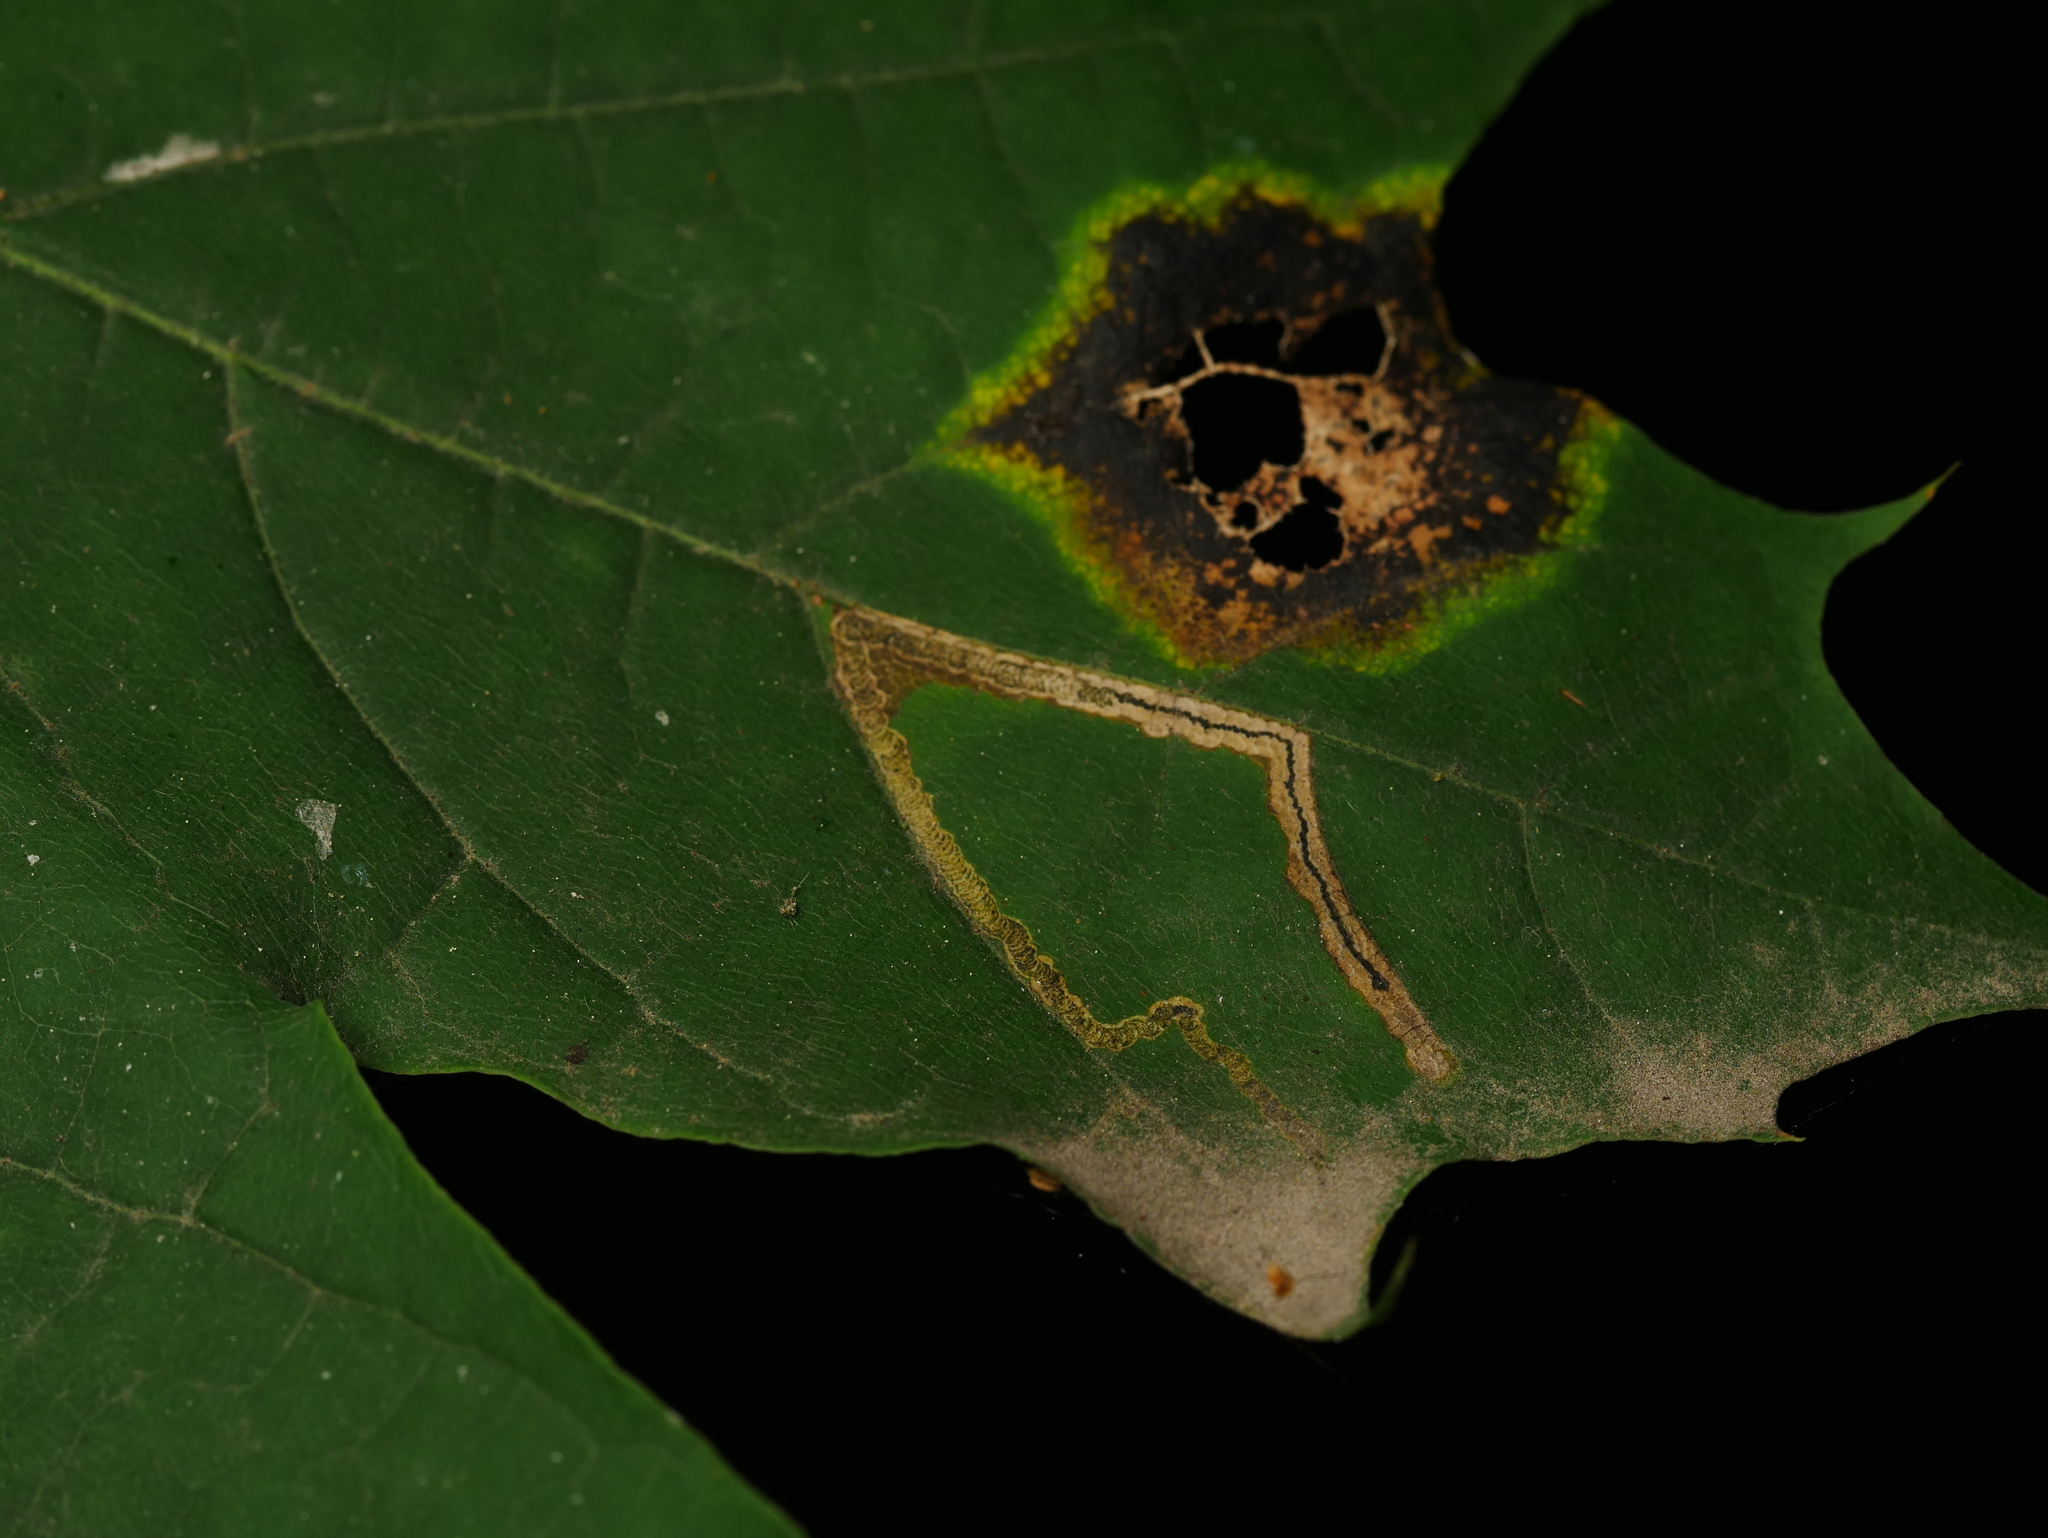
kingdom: Fungi
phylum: Ascomycota
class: Leotiomycetes
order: Rhytismatales
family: Rhytismataceae
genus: Rhytisma
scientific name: Rhytisma acerinum
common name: European tar spot
